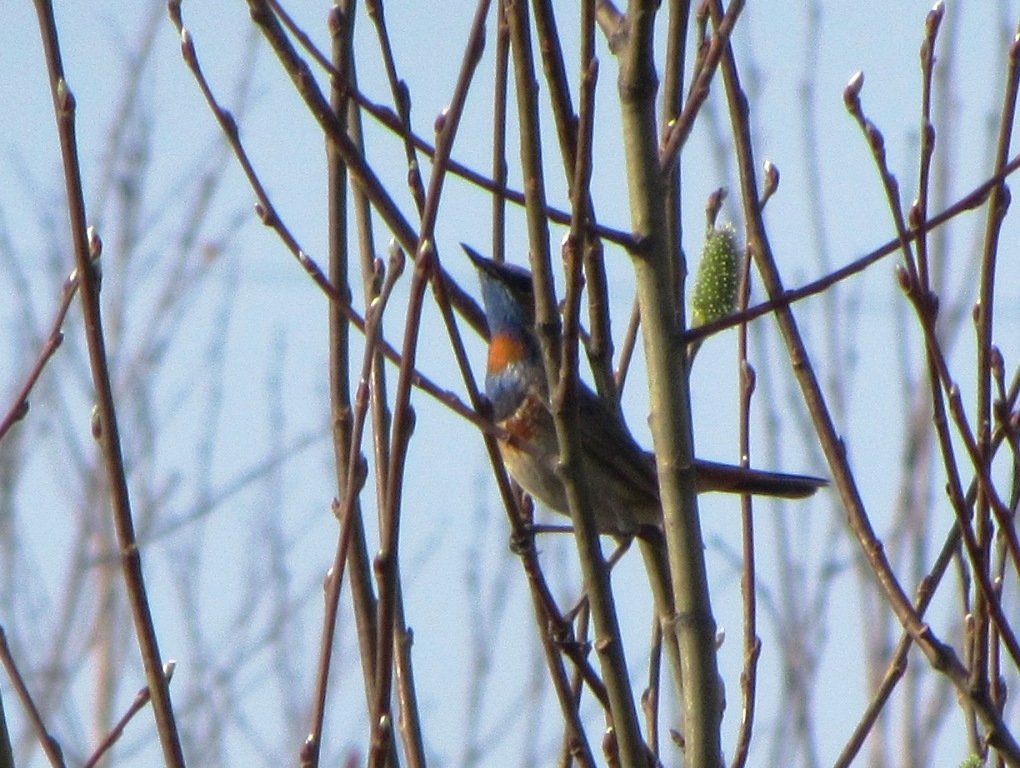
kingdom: Animalia
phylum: Chordata
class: Aves
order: Passeriformes
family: Muscicapidae
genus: Luscinia
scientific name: Luscinia svecica
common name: Bluethroat
